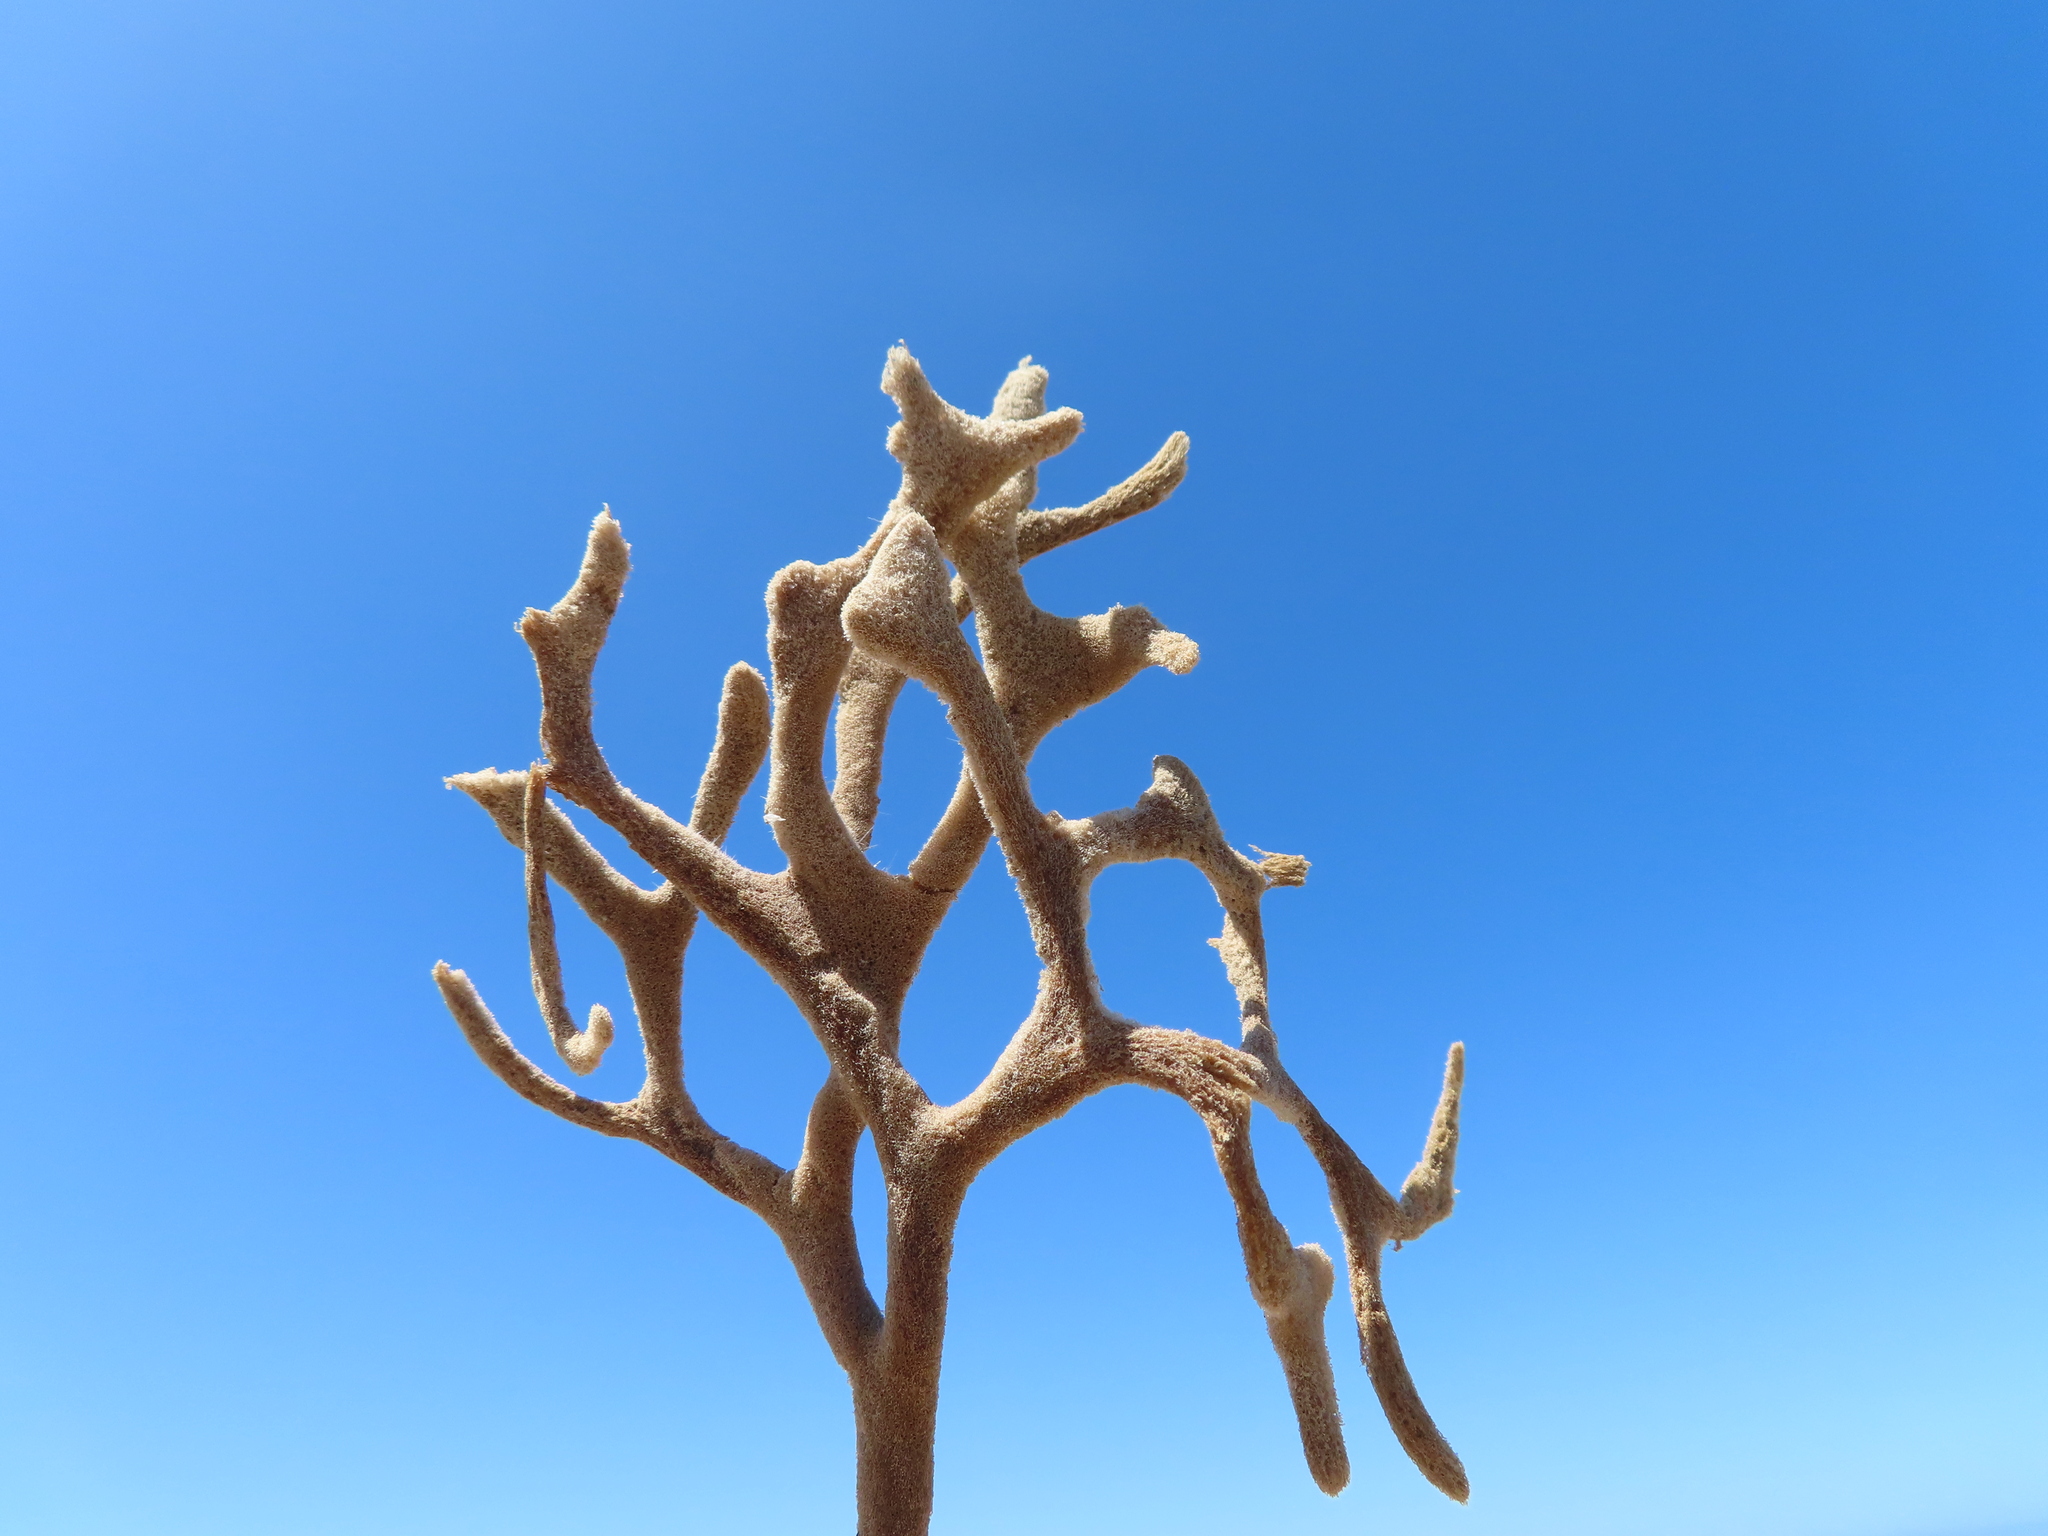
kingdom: Animalia
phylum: Porifera
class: Demospongiae
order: Poecilosclerida
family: Microcionidae
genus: Echinoclathria
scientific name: Echinoclathria dichotoma
